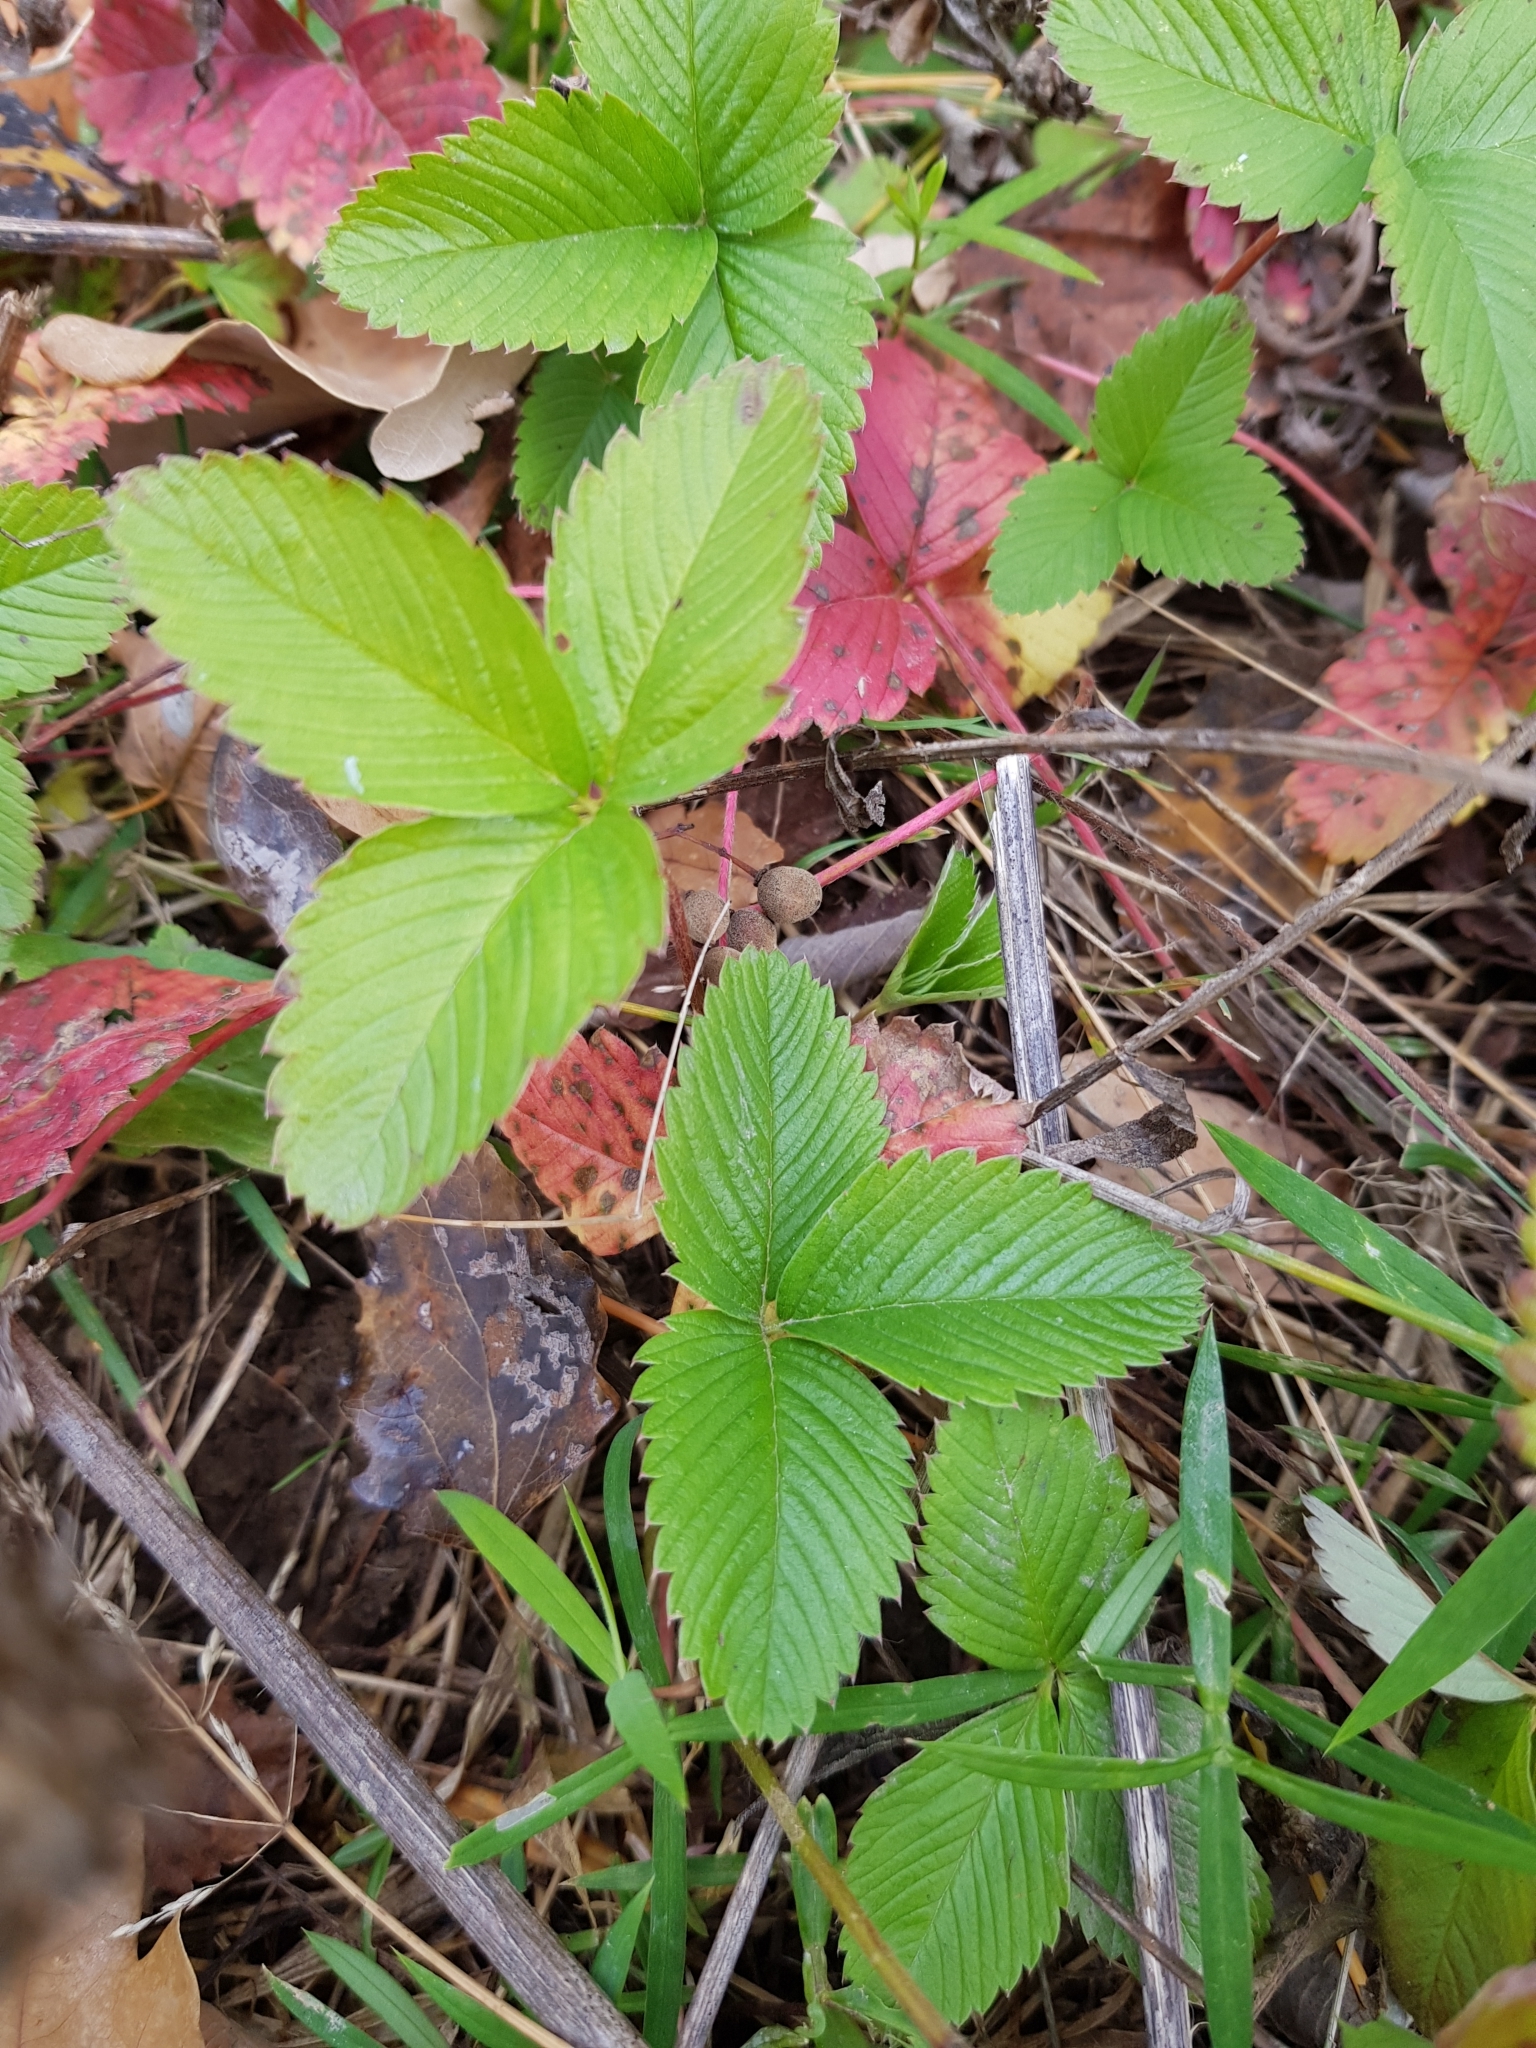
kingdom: Plantae
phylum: Tracheophyta
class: Magnoliopsida
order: Rosales
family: Rosaceae
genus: Fragaria
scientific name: Fragaria viridis
